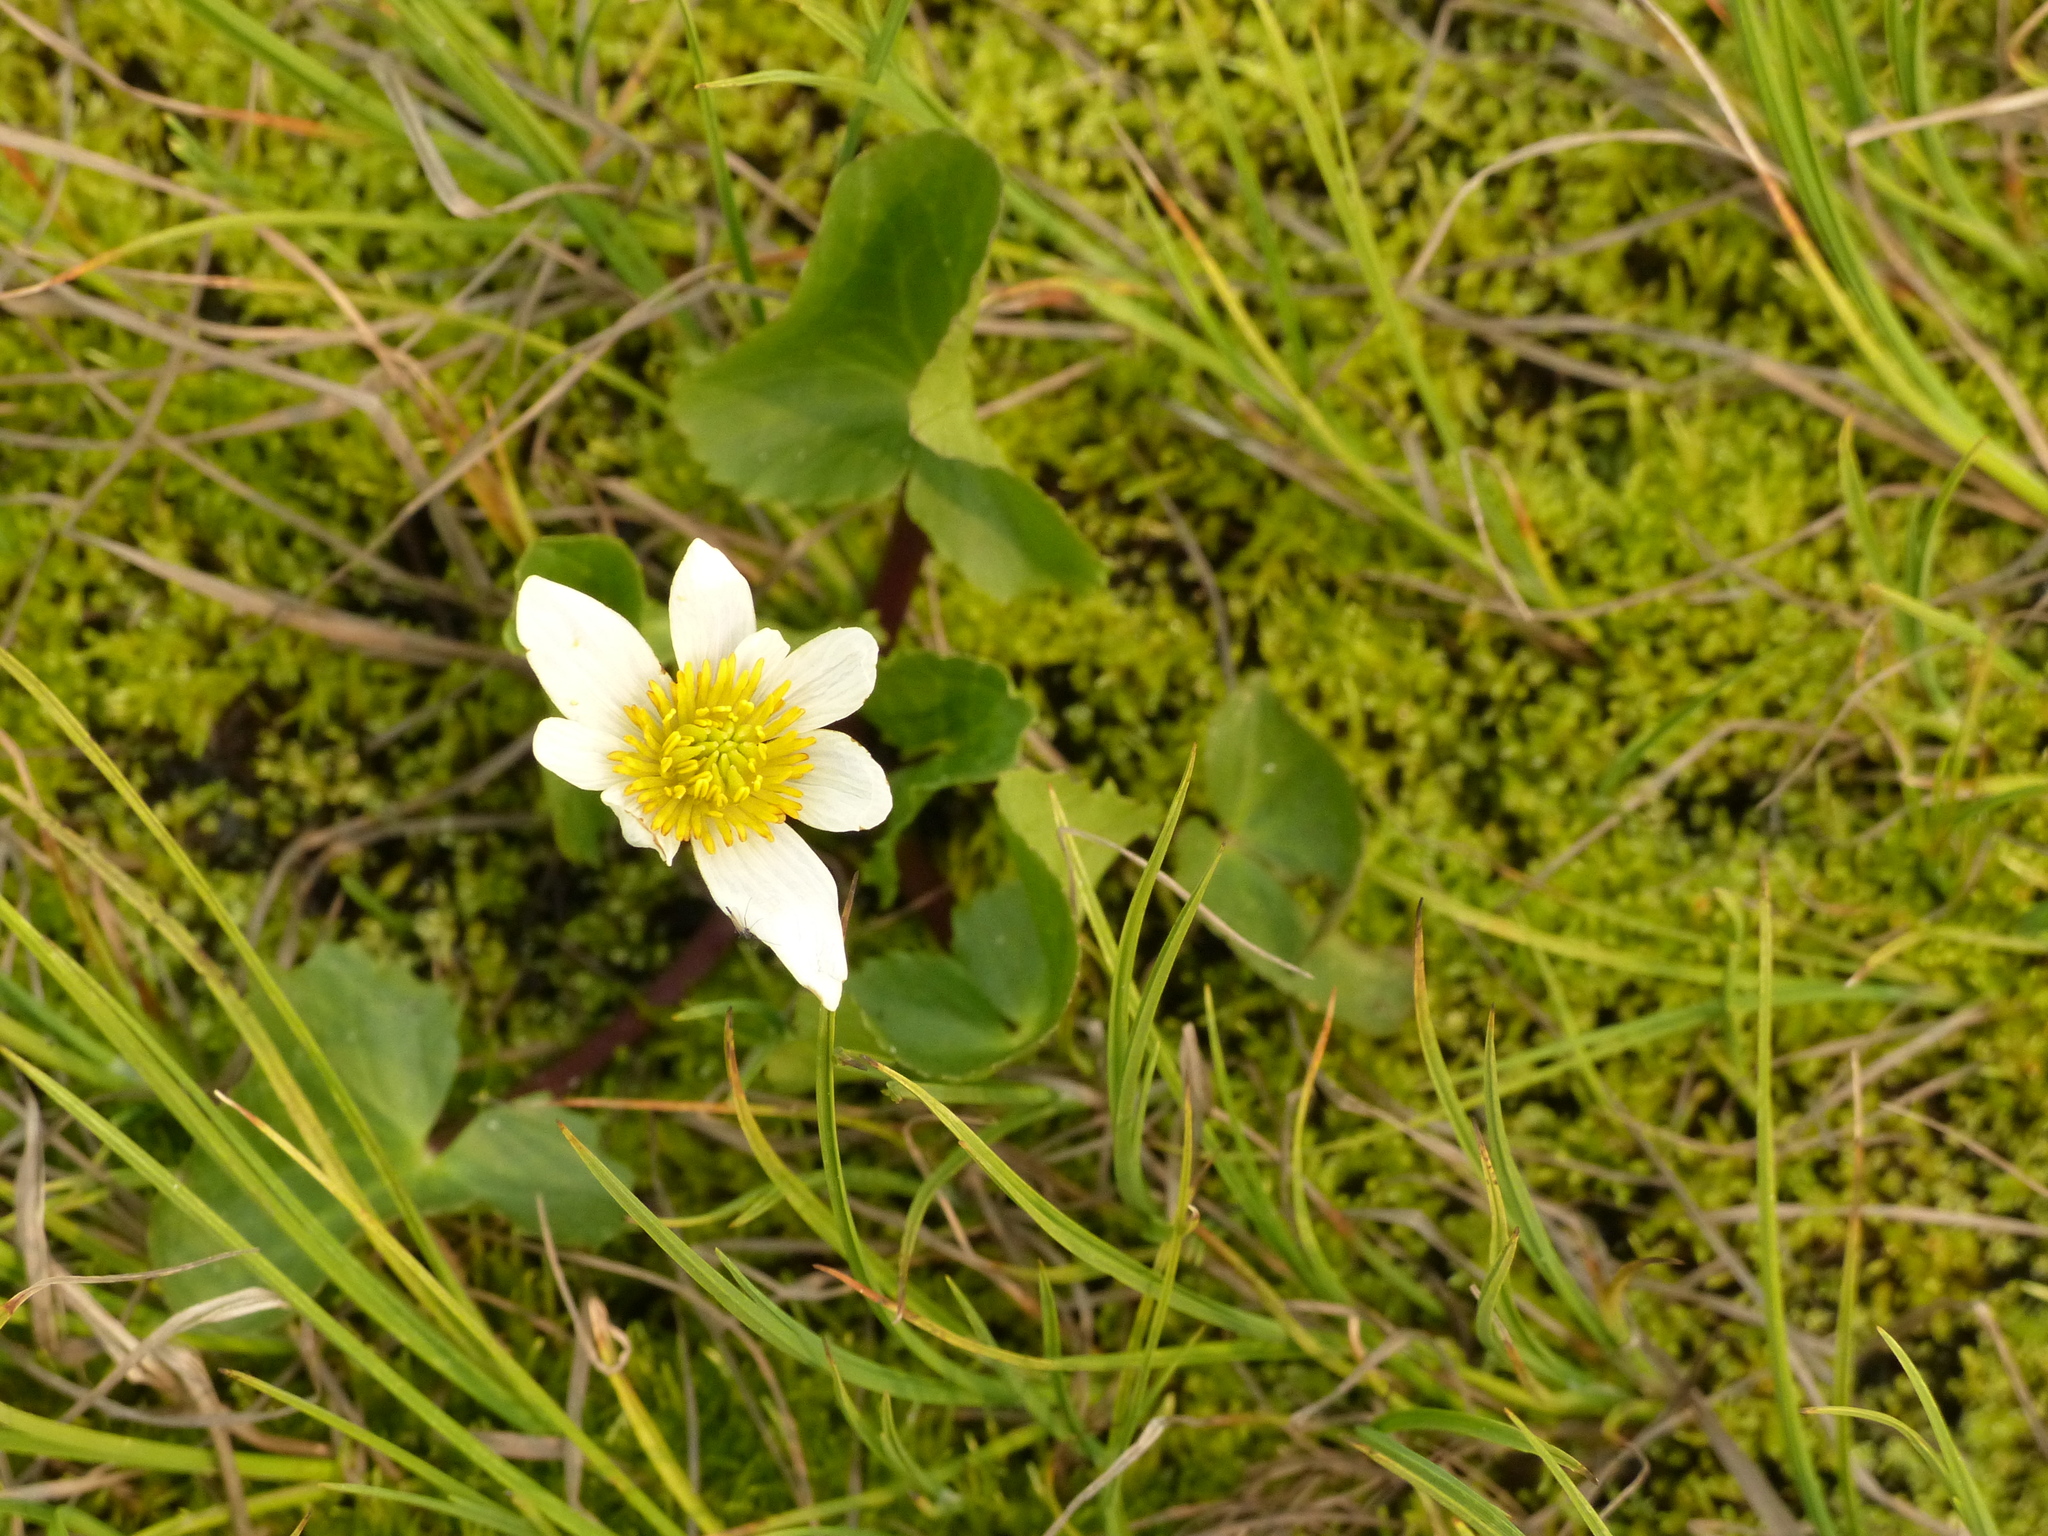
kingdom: Plantae
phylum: Tracheophyta
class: Magnoliopsida
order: Ranunculales
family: Ranunculaceae
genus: Caltha
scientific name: Caltha leptosepala
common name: Elkslip
